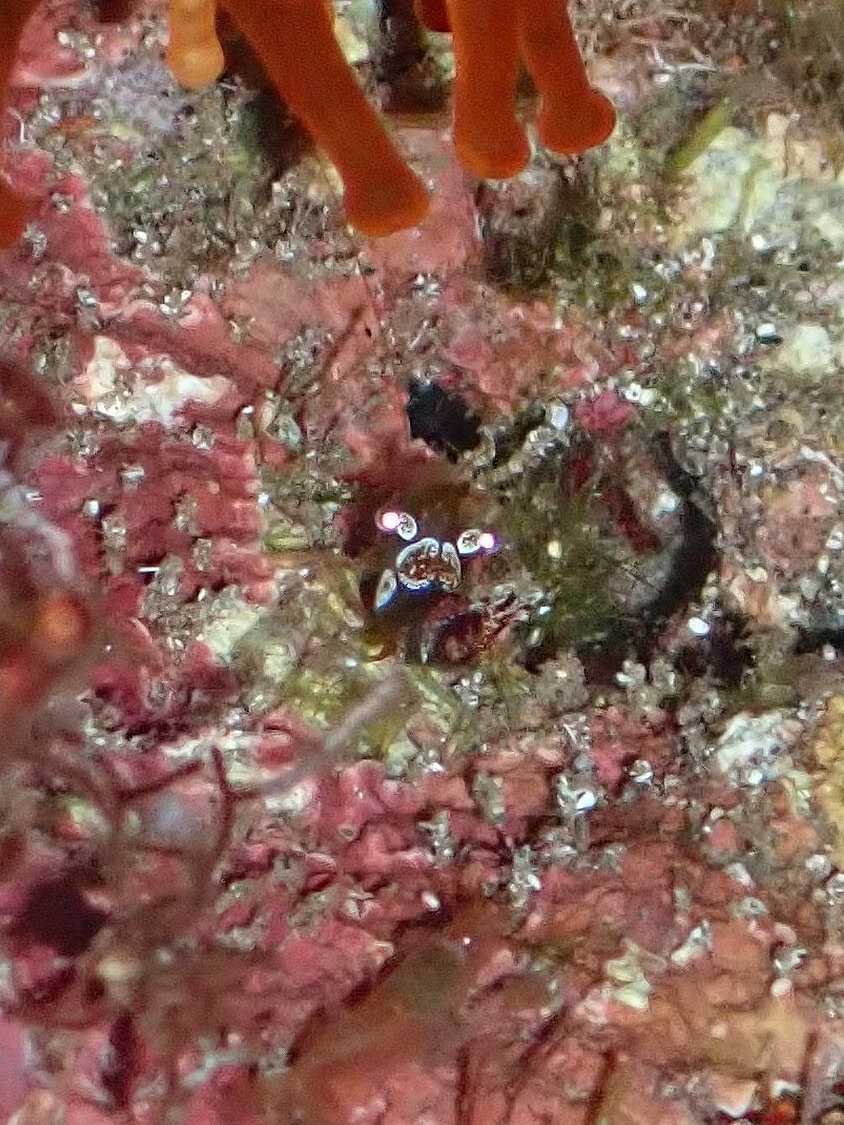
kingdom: Animalia
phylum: Arthropoda
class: Malacostraca
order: Decapoda
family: Thoridae
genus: Thor
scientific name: Thor amboinensis
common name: Squat anemone shrimp
